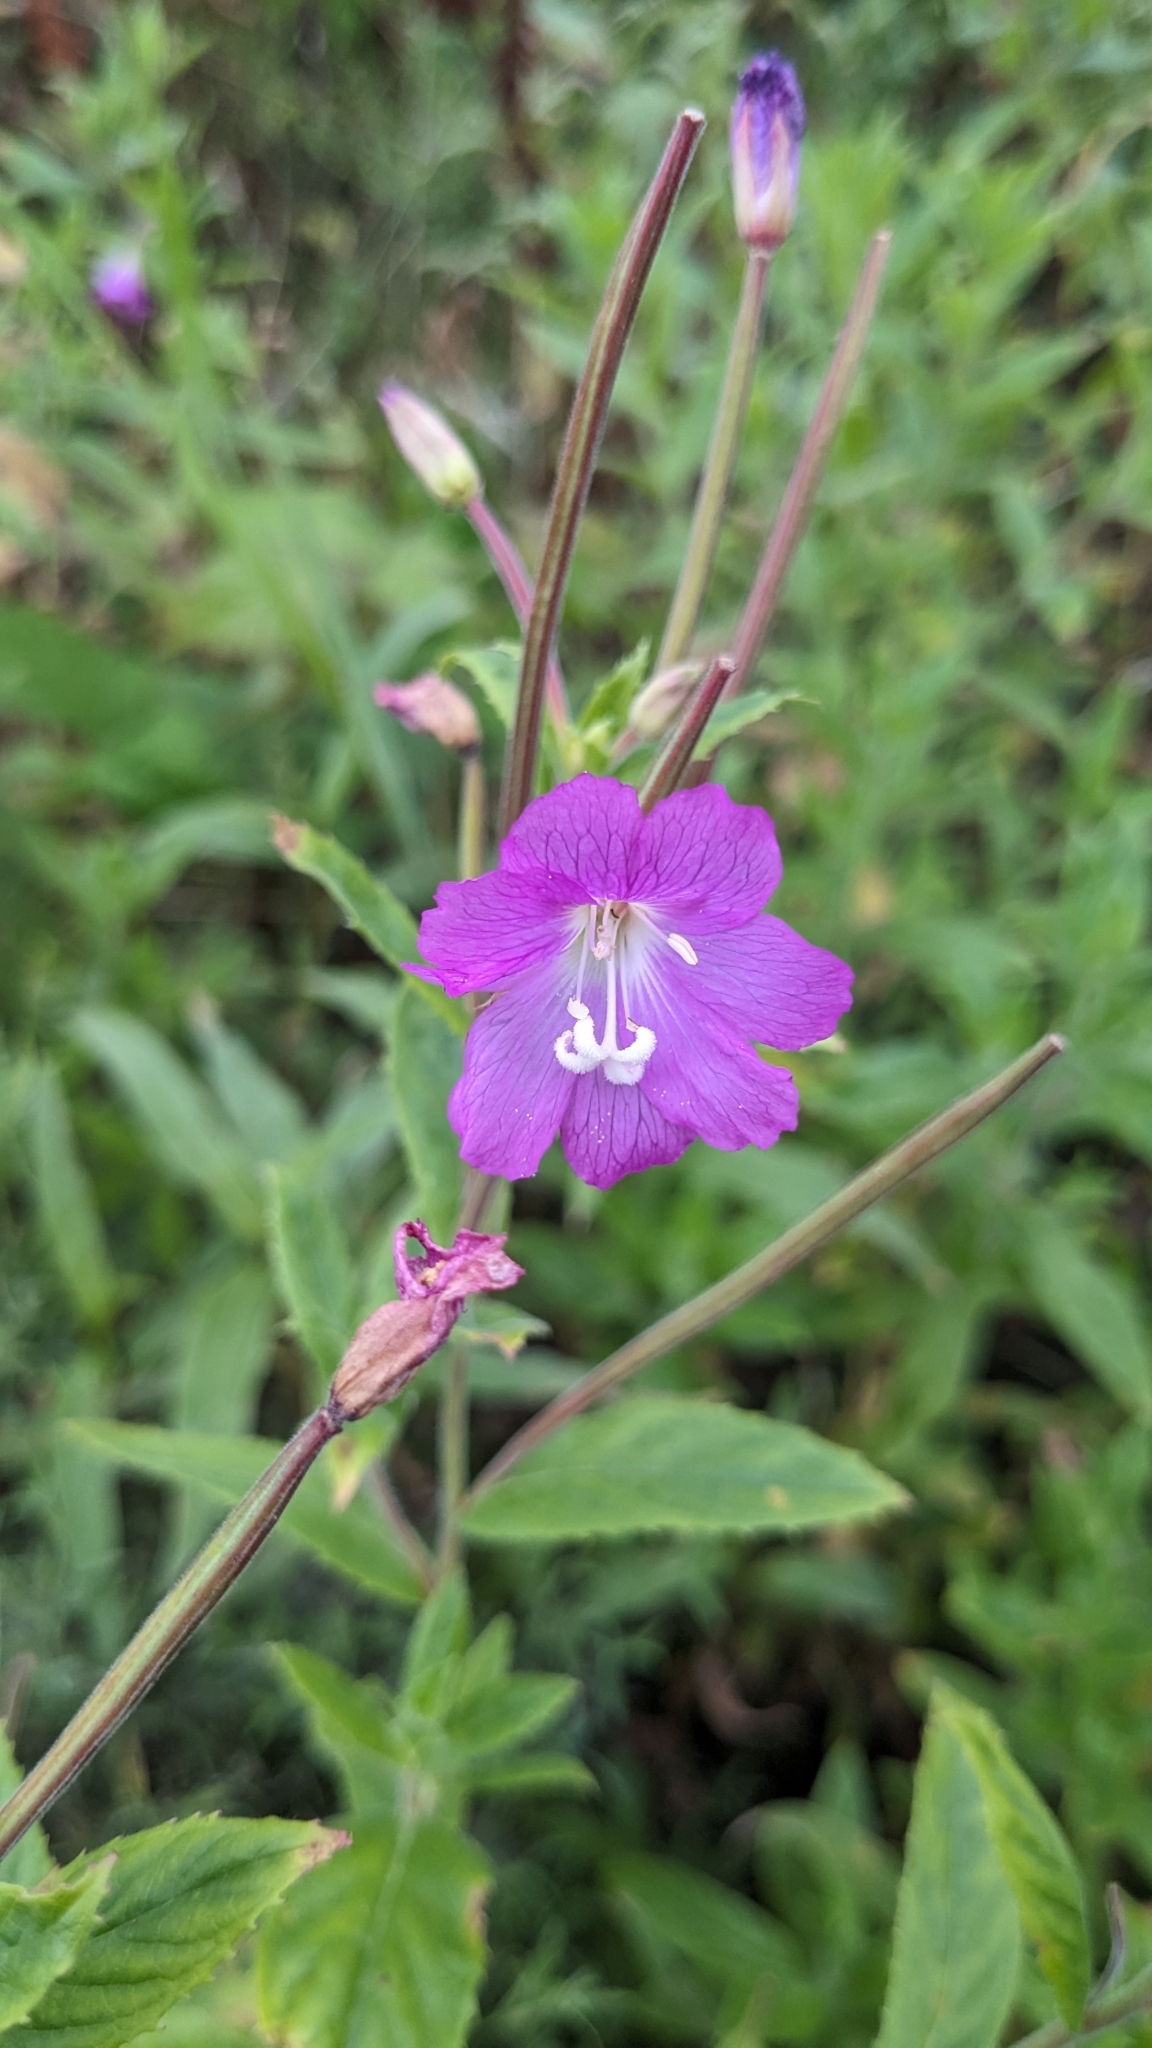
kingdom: Plantae
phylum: Tracheophyta
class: Magnoliopsida
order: Myrtales
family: Onagraceae
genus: Epilobium
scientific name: Epilobium hirsutum
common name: Great willowherb
